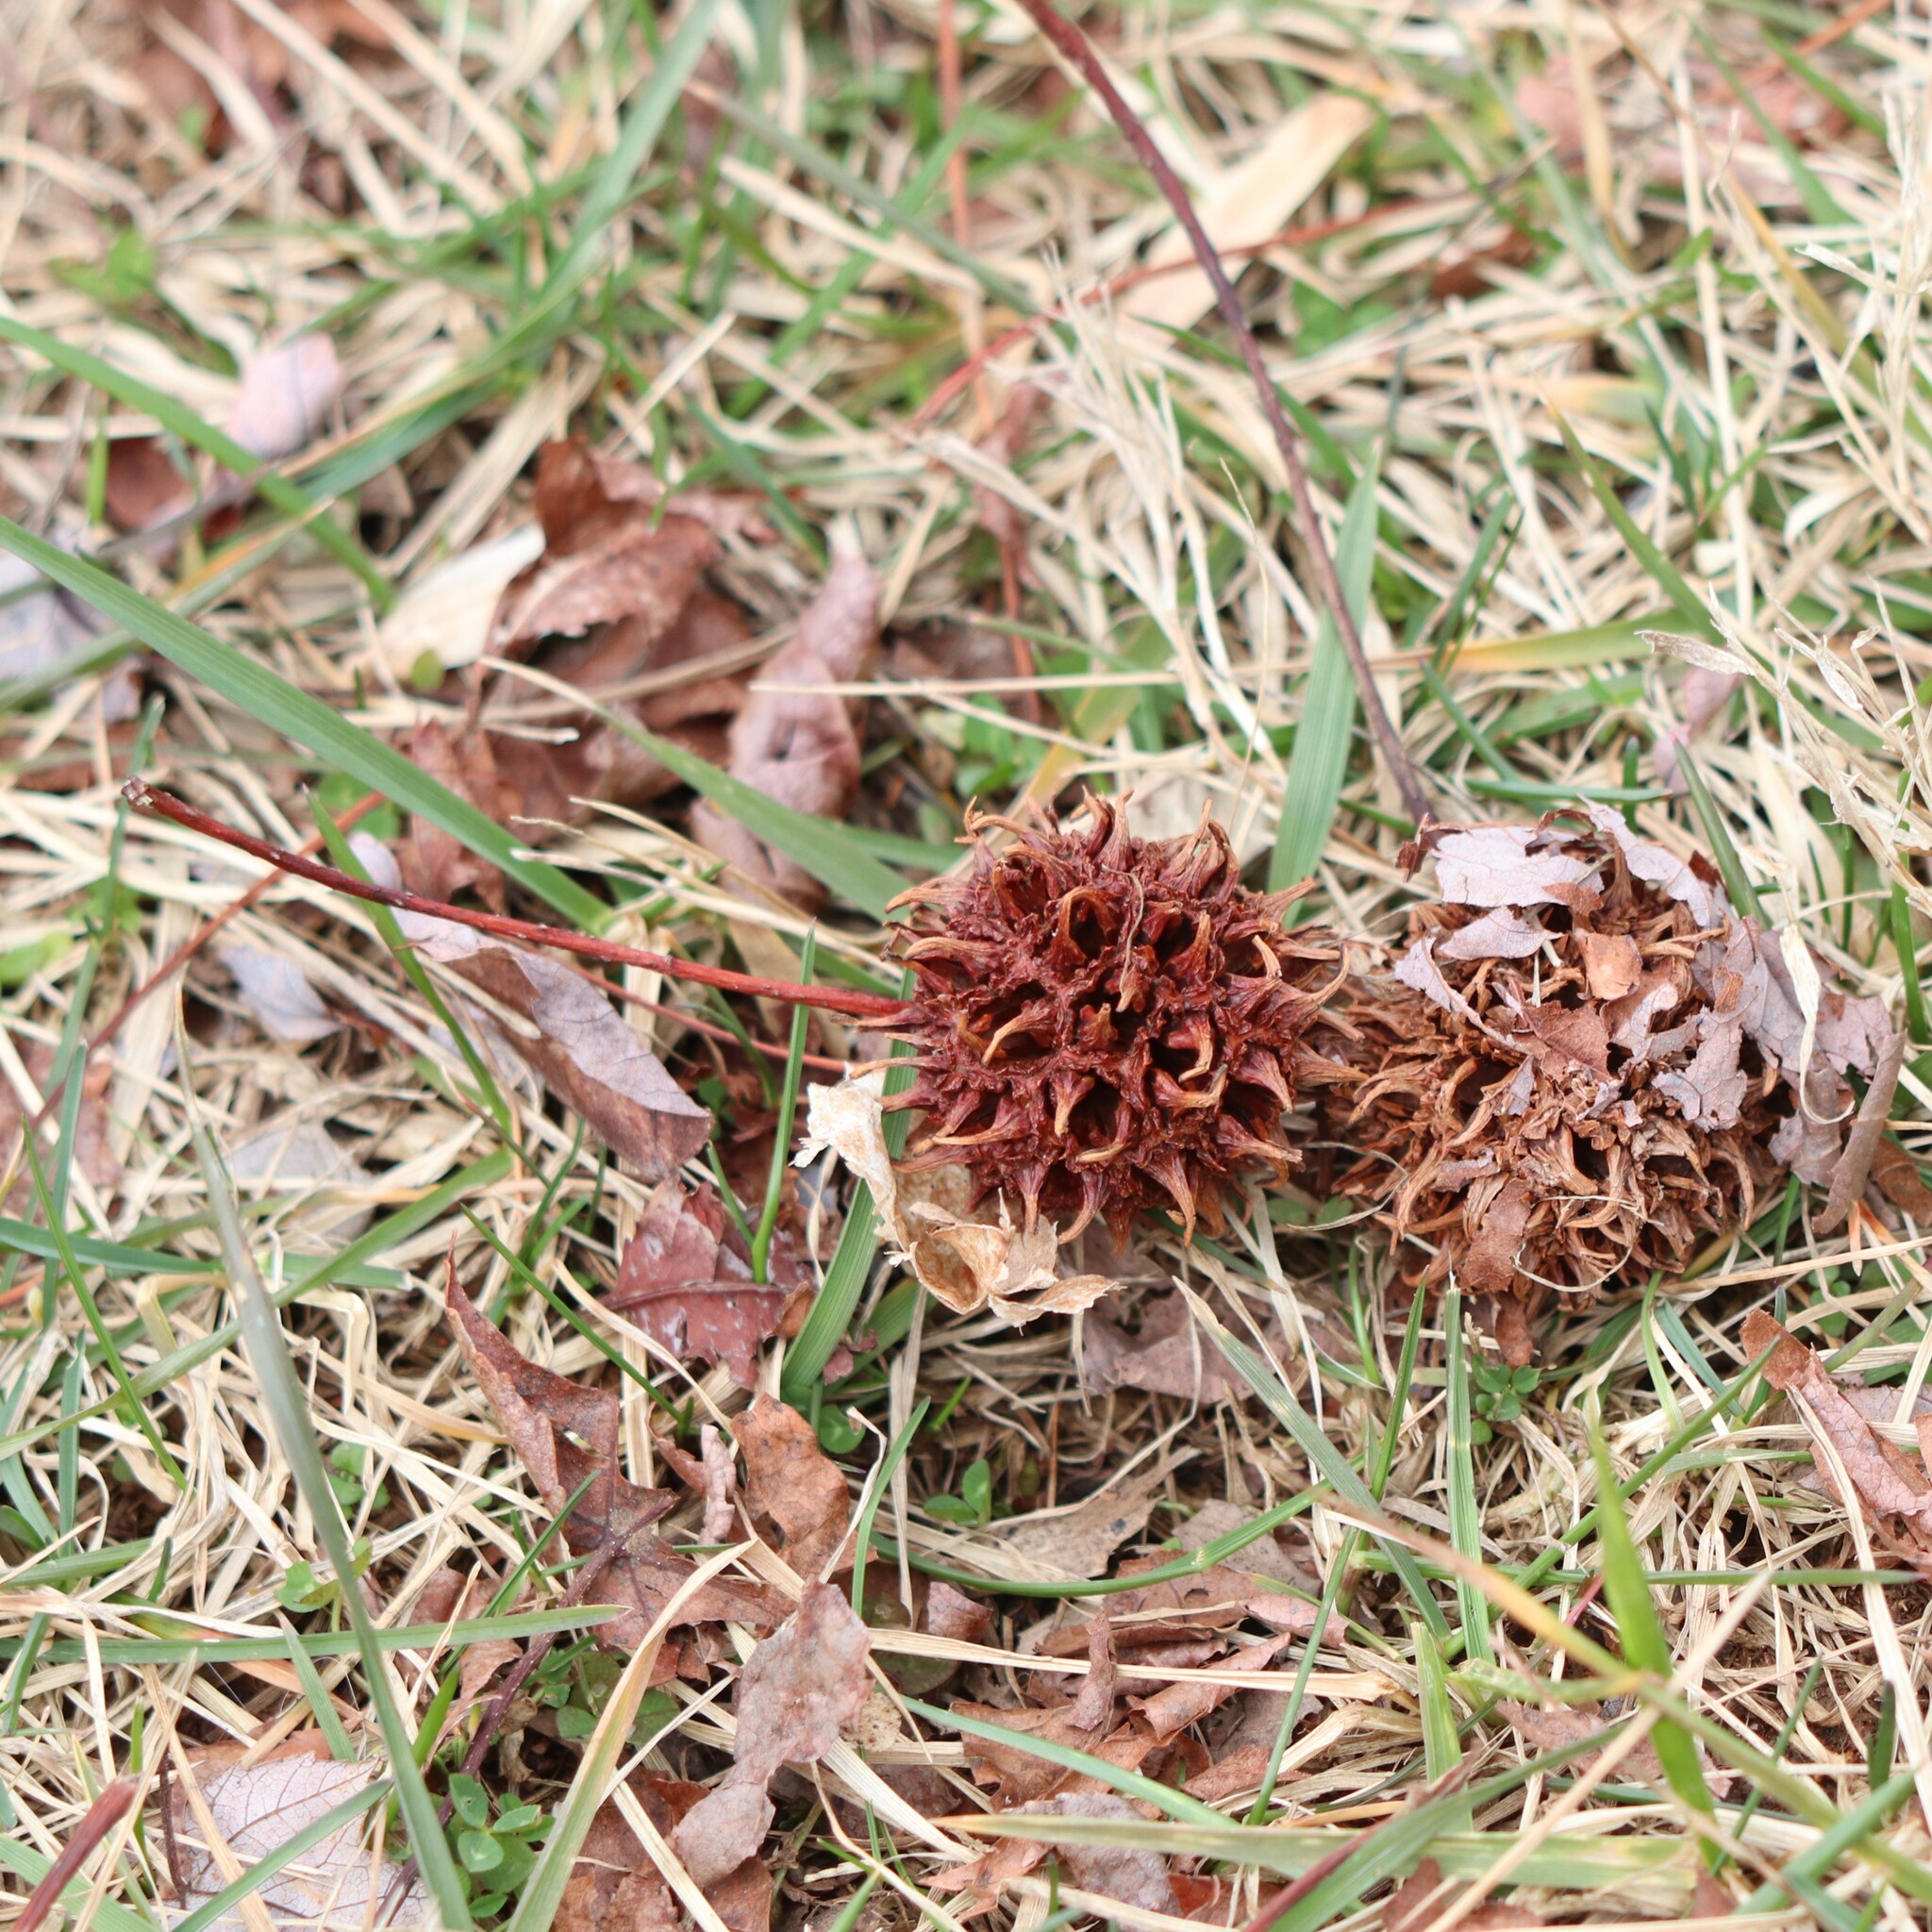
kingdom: Plantae
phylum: Tracheophyta
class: Magnoliopsida
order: Saxifragales
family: Altingiaceae
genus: Liquidambar
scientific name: Liquidambar styraciflua
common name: Sweet gum
